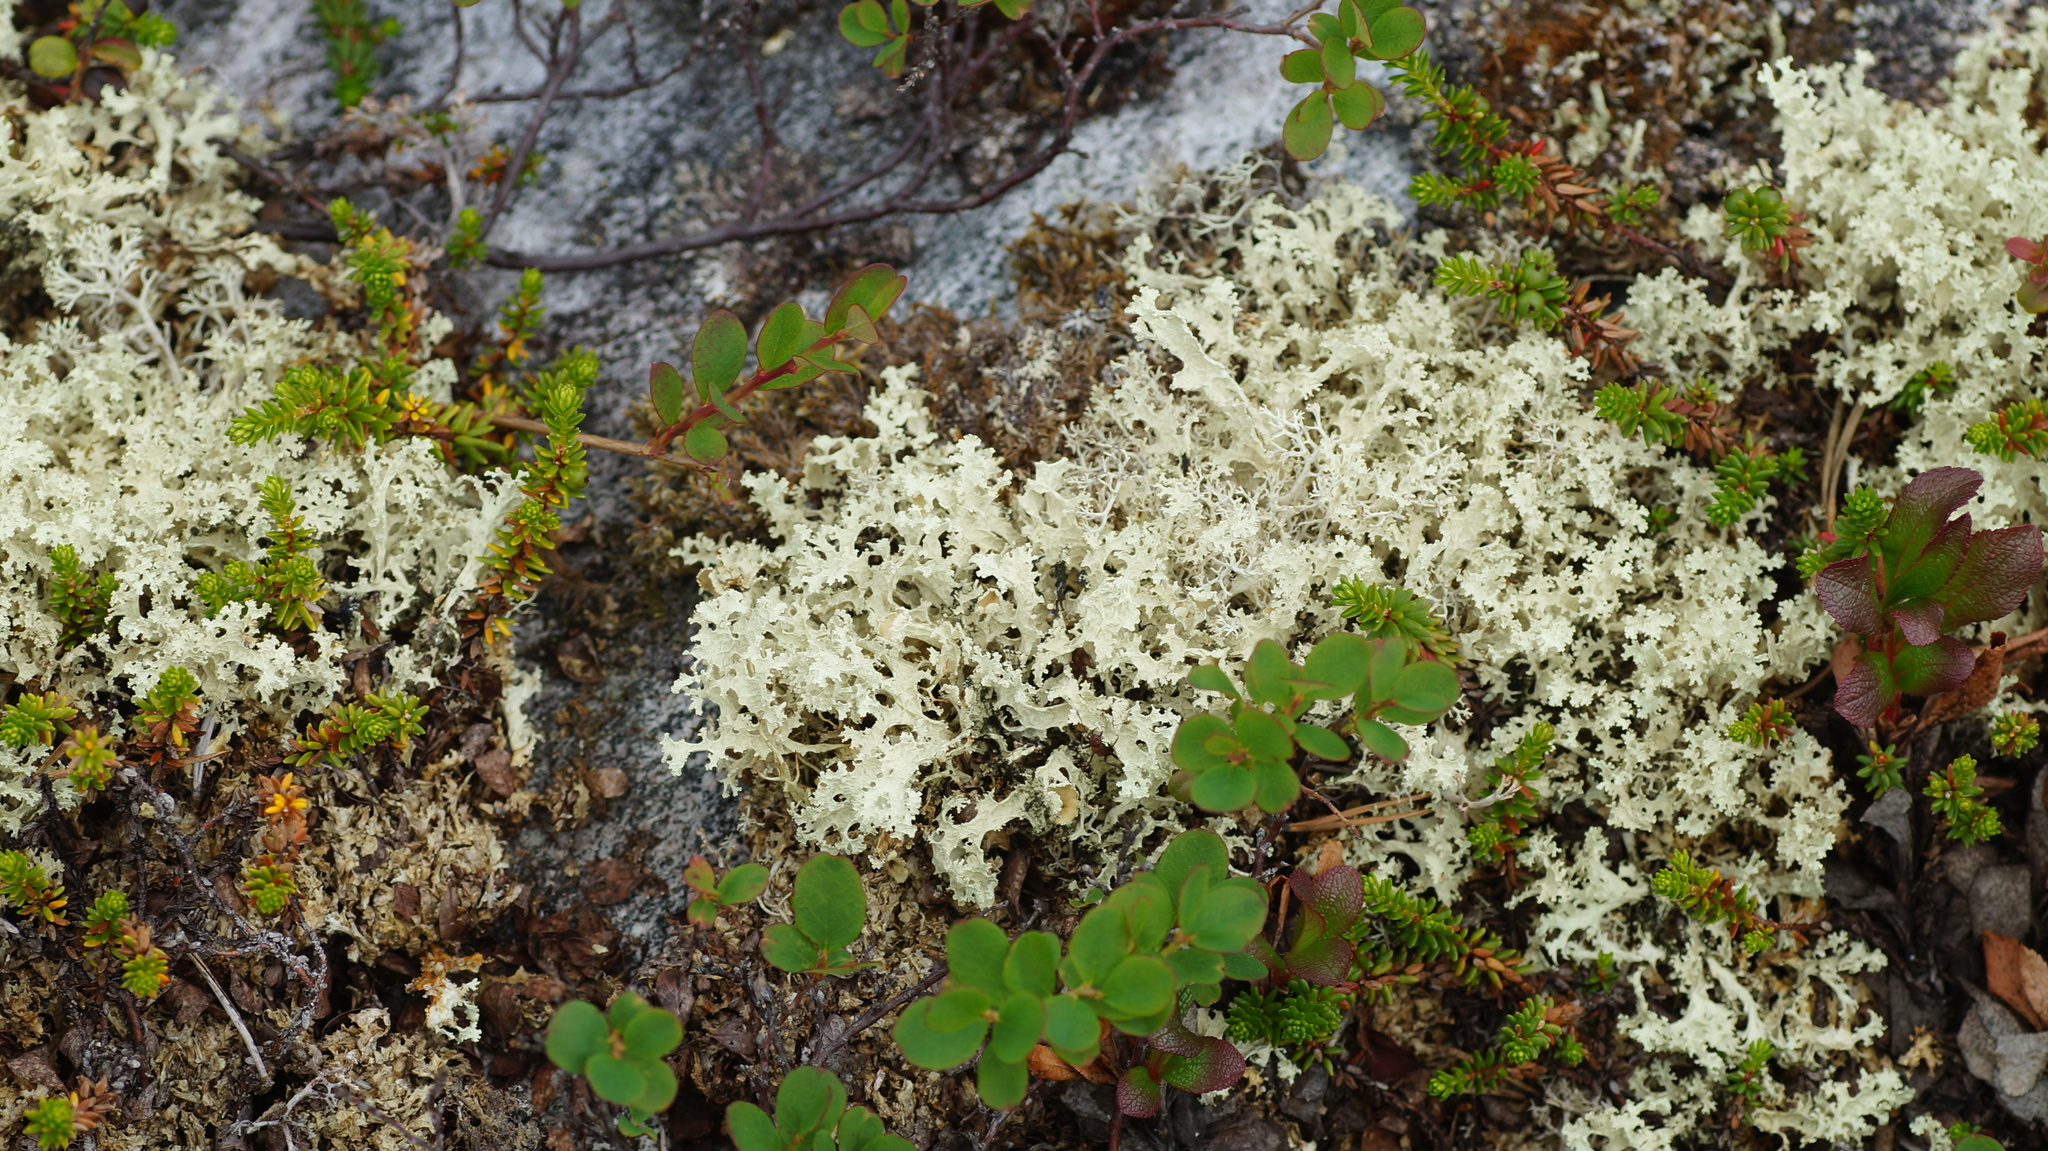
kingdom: Fungi
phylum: Ascomycota
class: Lecanoromycetes
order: Lecanorales
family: Parmeliaceae
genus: Nephromopsis
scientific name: Nephromopsis nivalis
